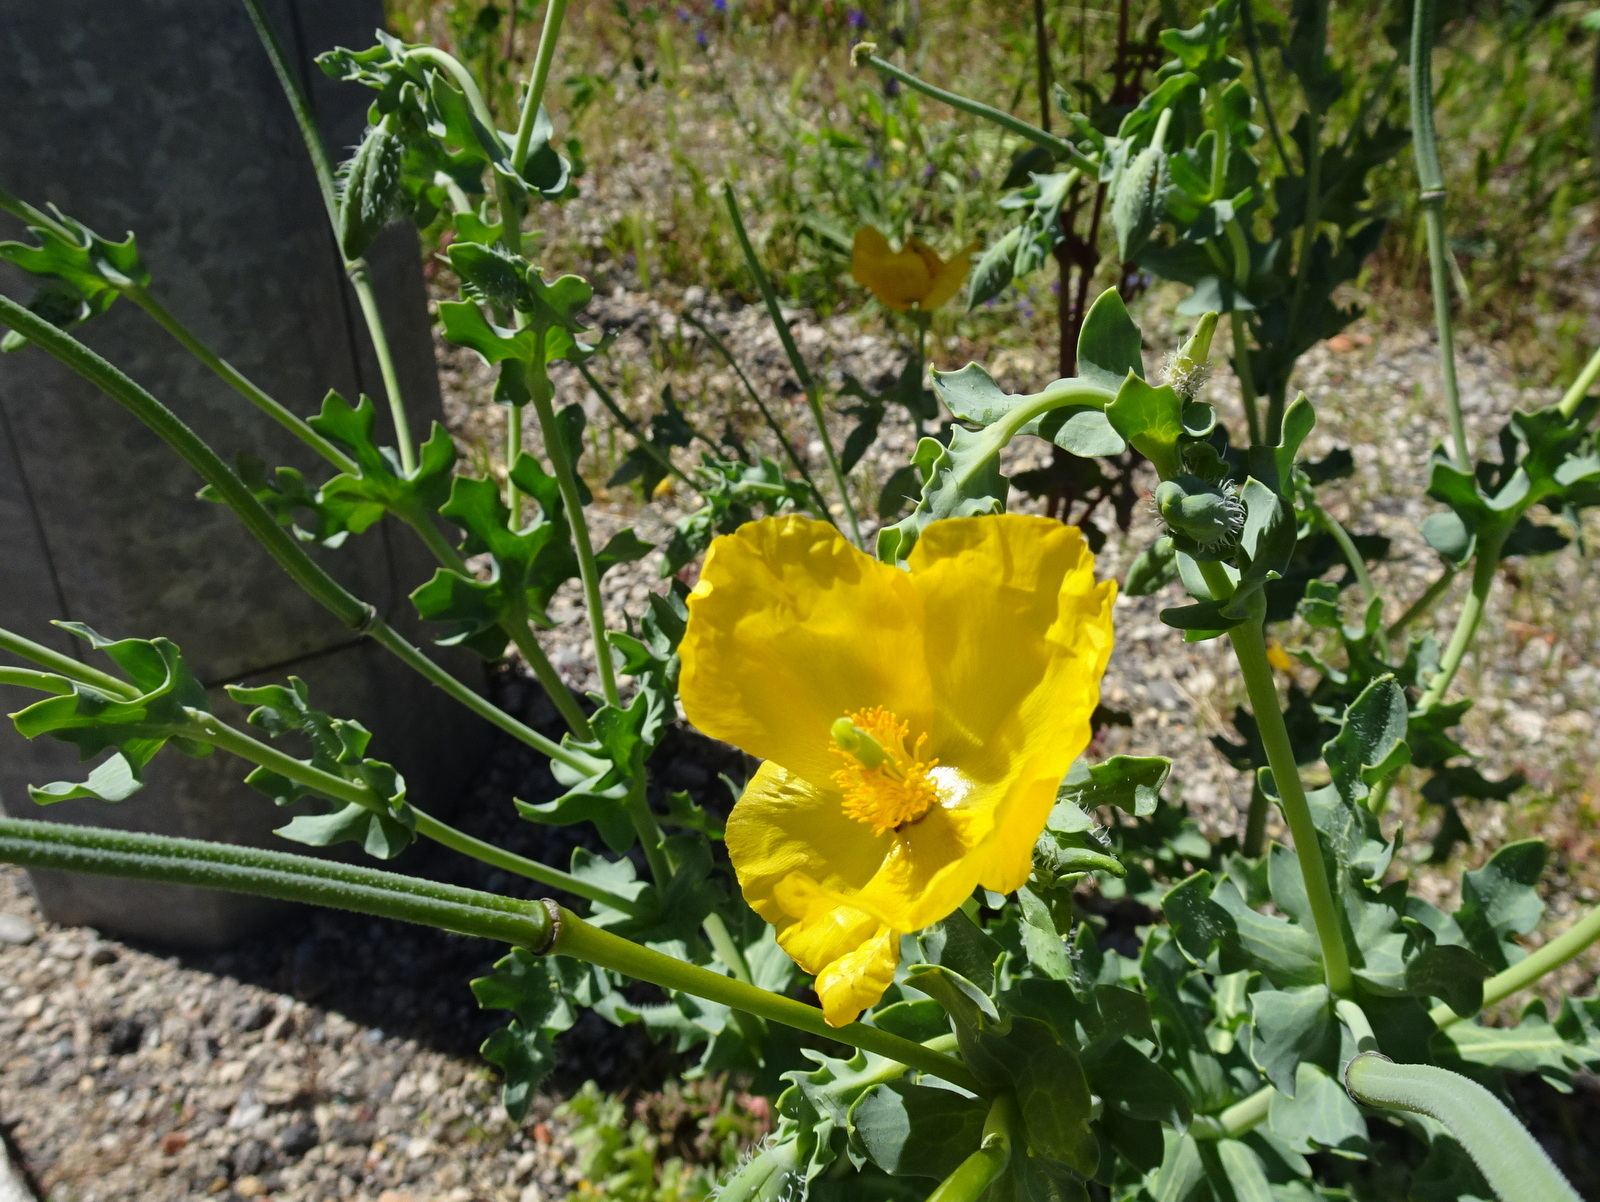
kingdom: Plantae
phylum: Tracheophyta
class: Magnoliopsida
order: Ranunculales
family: Papaveraceae
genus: Glaucium
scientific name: Glaucium flavum
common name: Yellow horned-poppy
